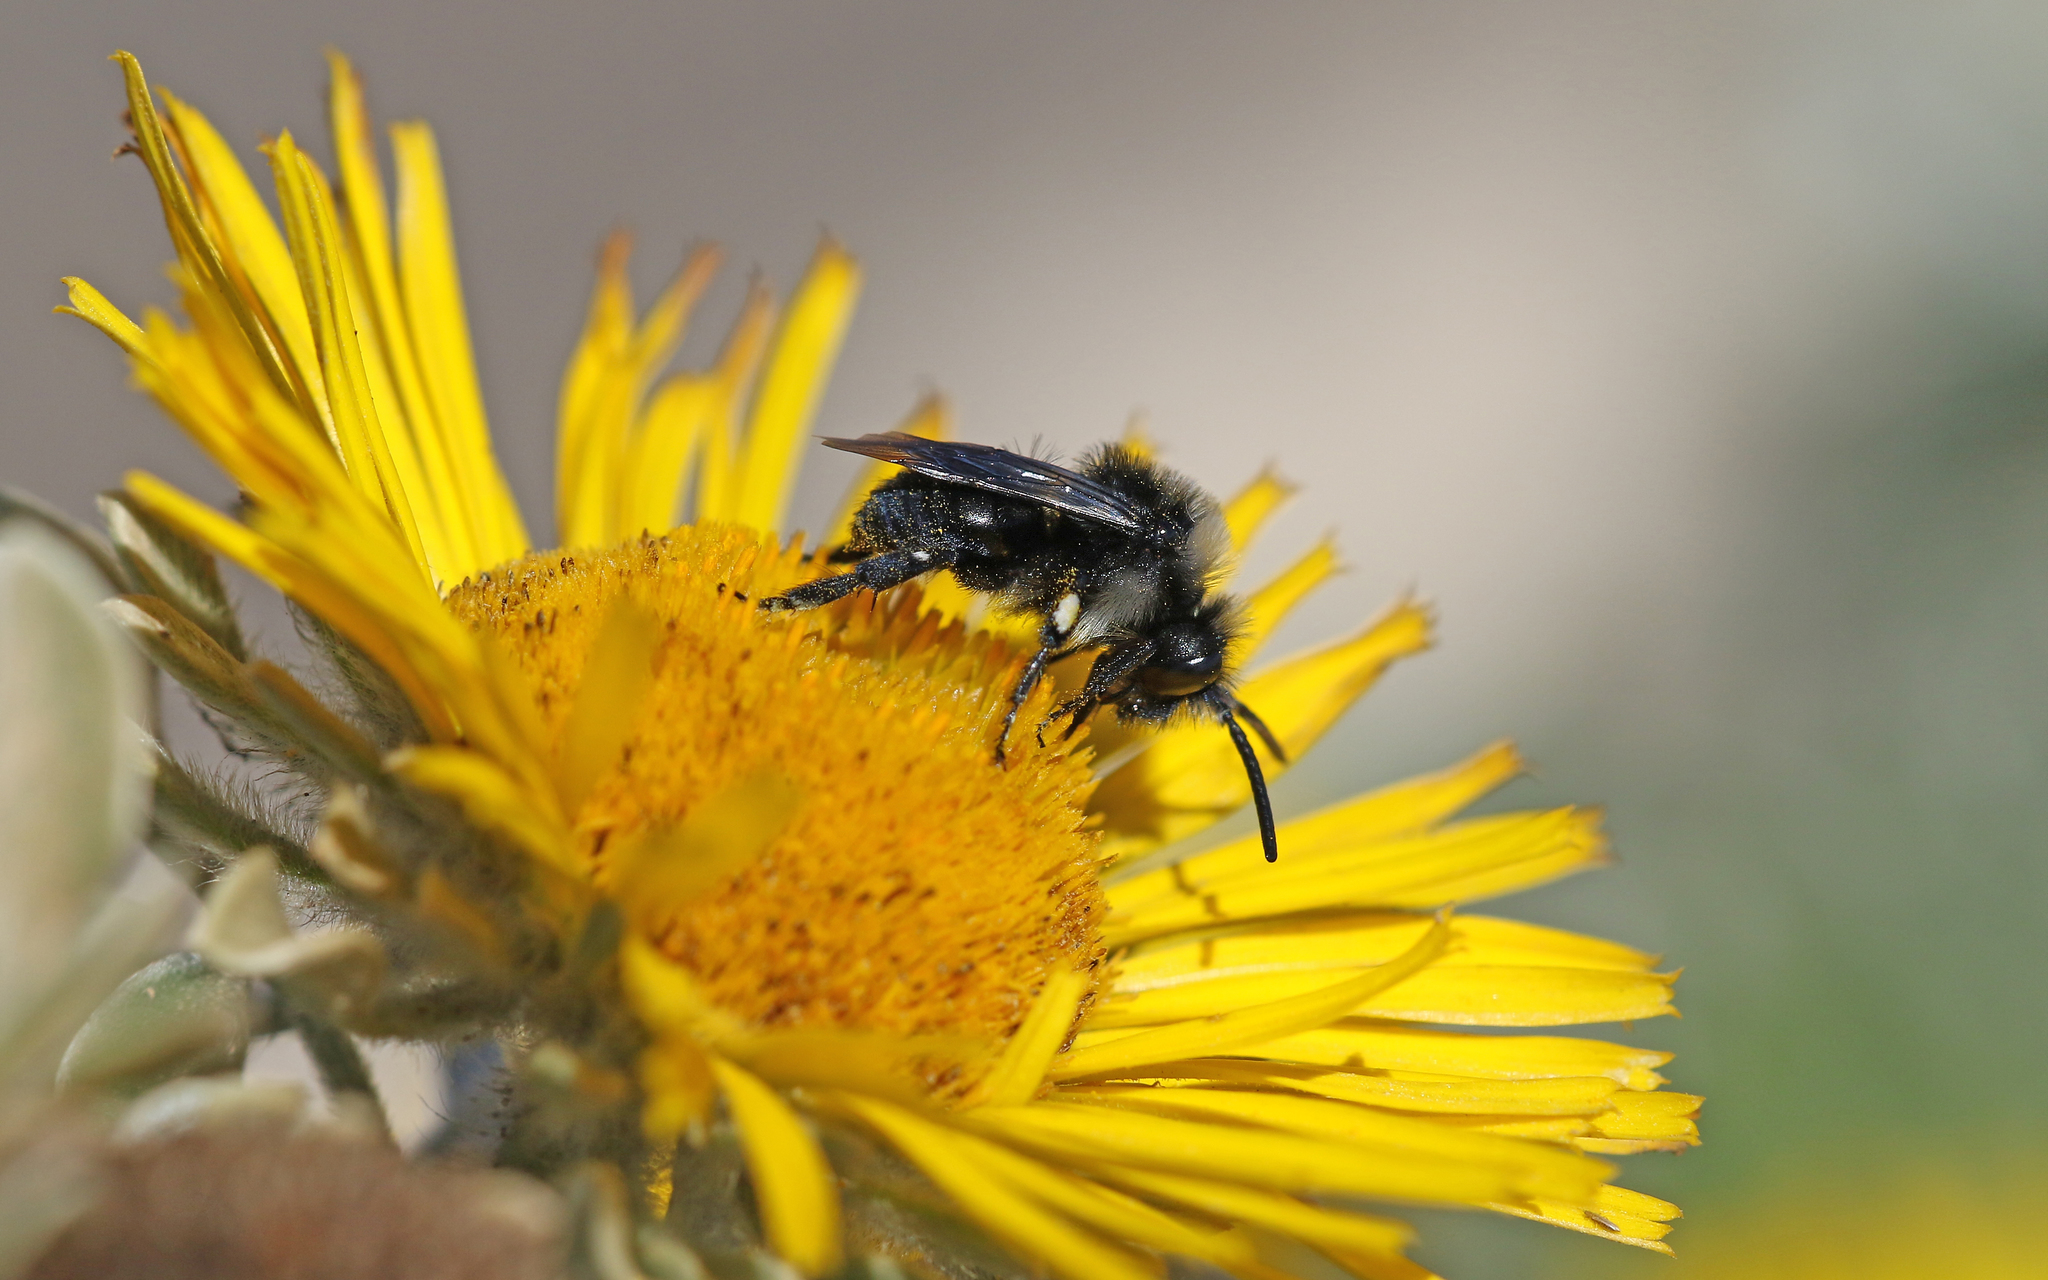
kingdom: Animalia
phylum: Arthropoda
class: Insecta
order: Hymenoptera
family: Apidae
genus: Melecta
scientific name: Melecta caroli
